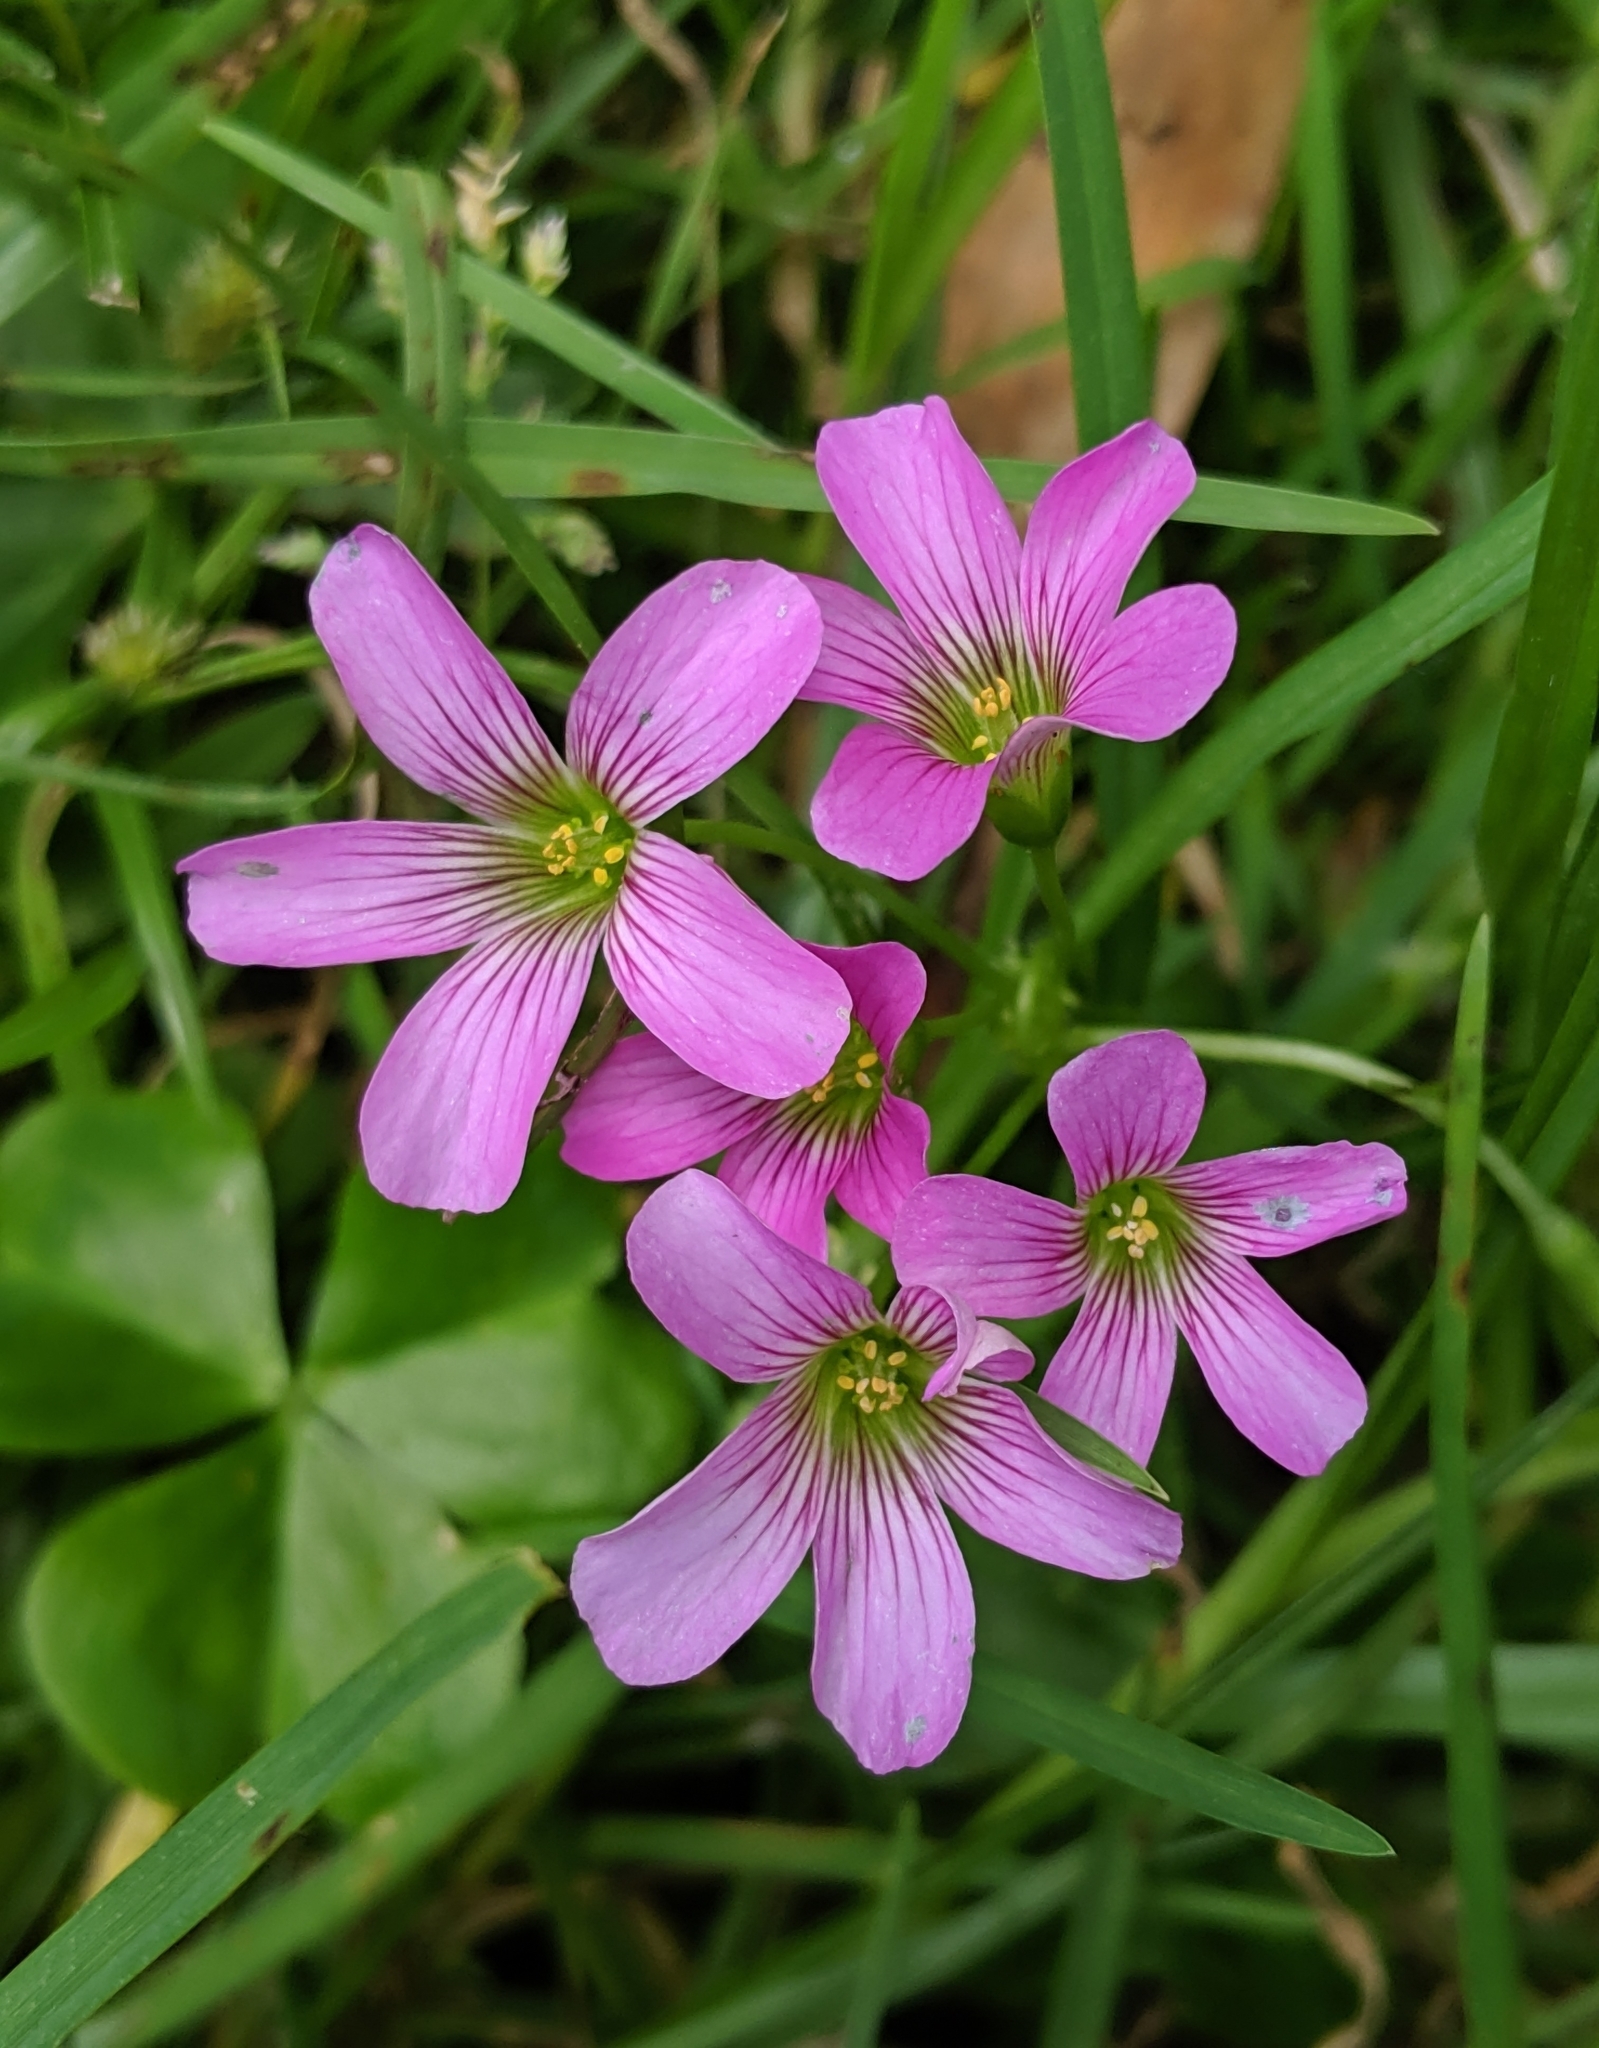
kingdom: Plantae
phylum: Tracheophyta
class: Magnoliopsida
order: Oxalidales
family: Oxalidaceae
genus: Oxalis
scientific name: Oxalis debilis
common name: Large-flowered pink-sorrel
